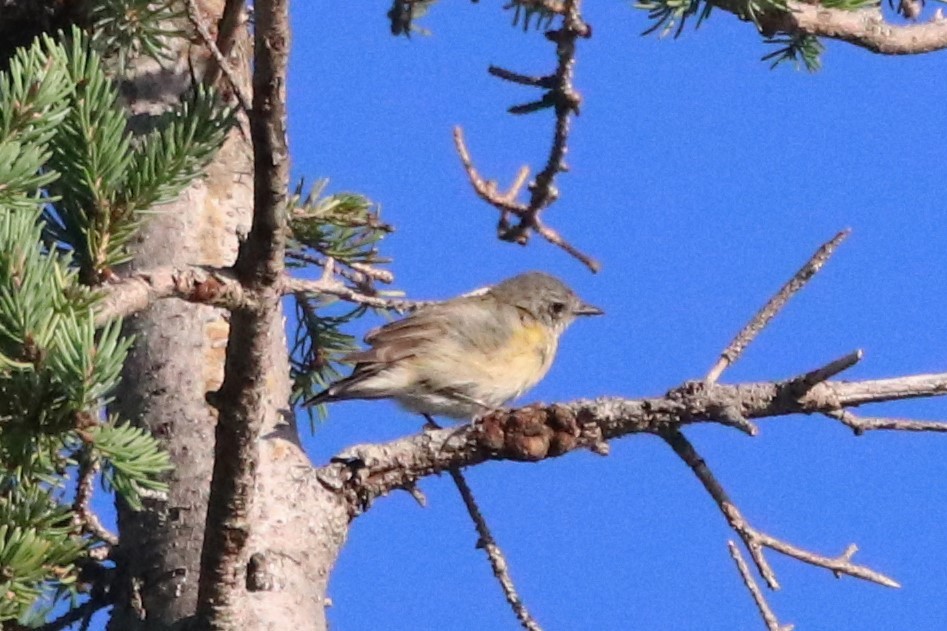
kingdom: Animalia
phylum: Chordata
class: Aves
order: Passeriformes
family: Parulidae
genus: Setophaga
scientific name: Setophaga ruticilla
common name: American redstart
